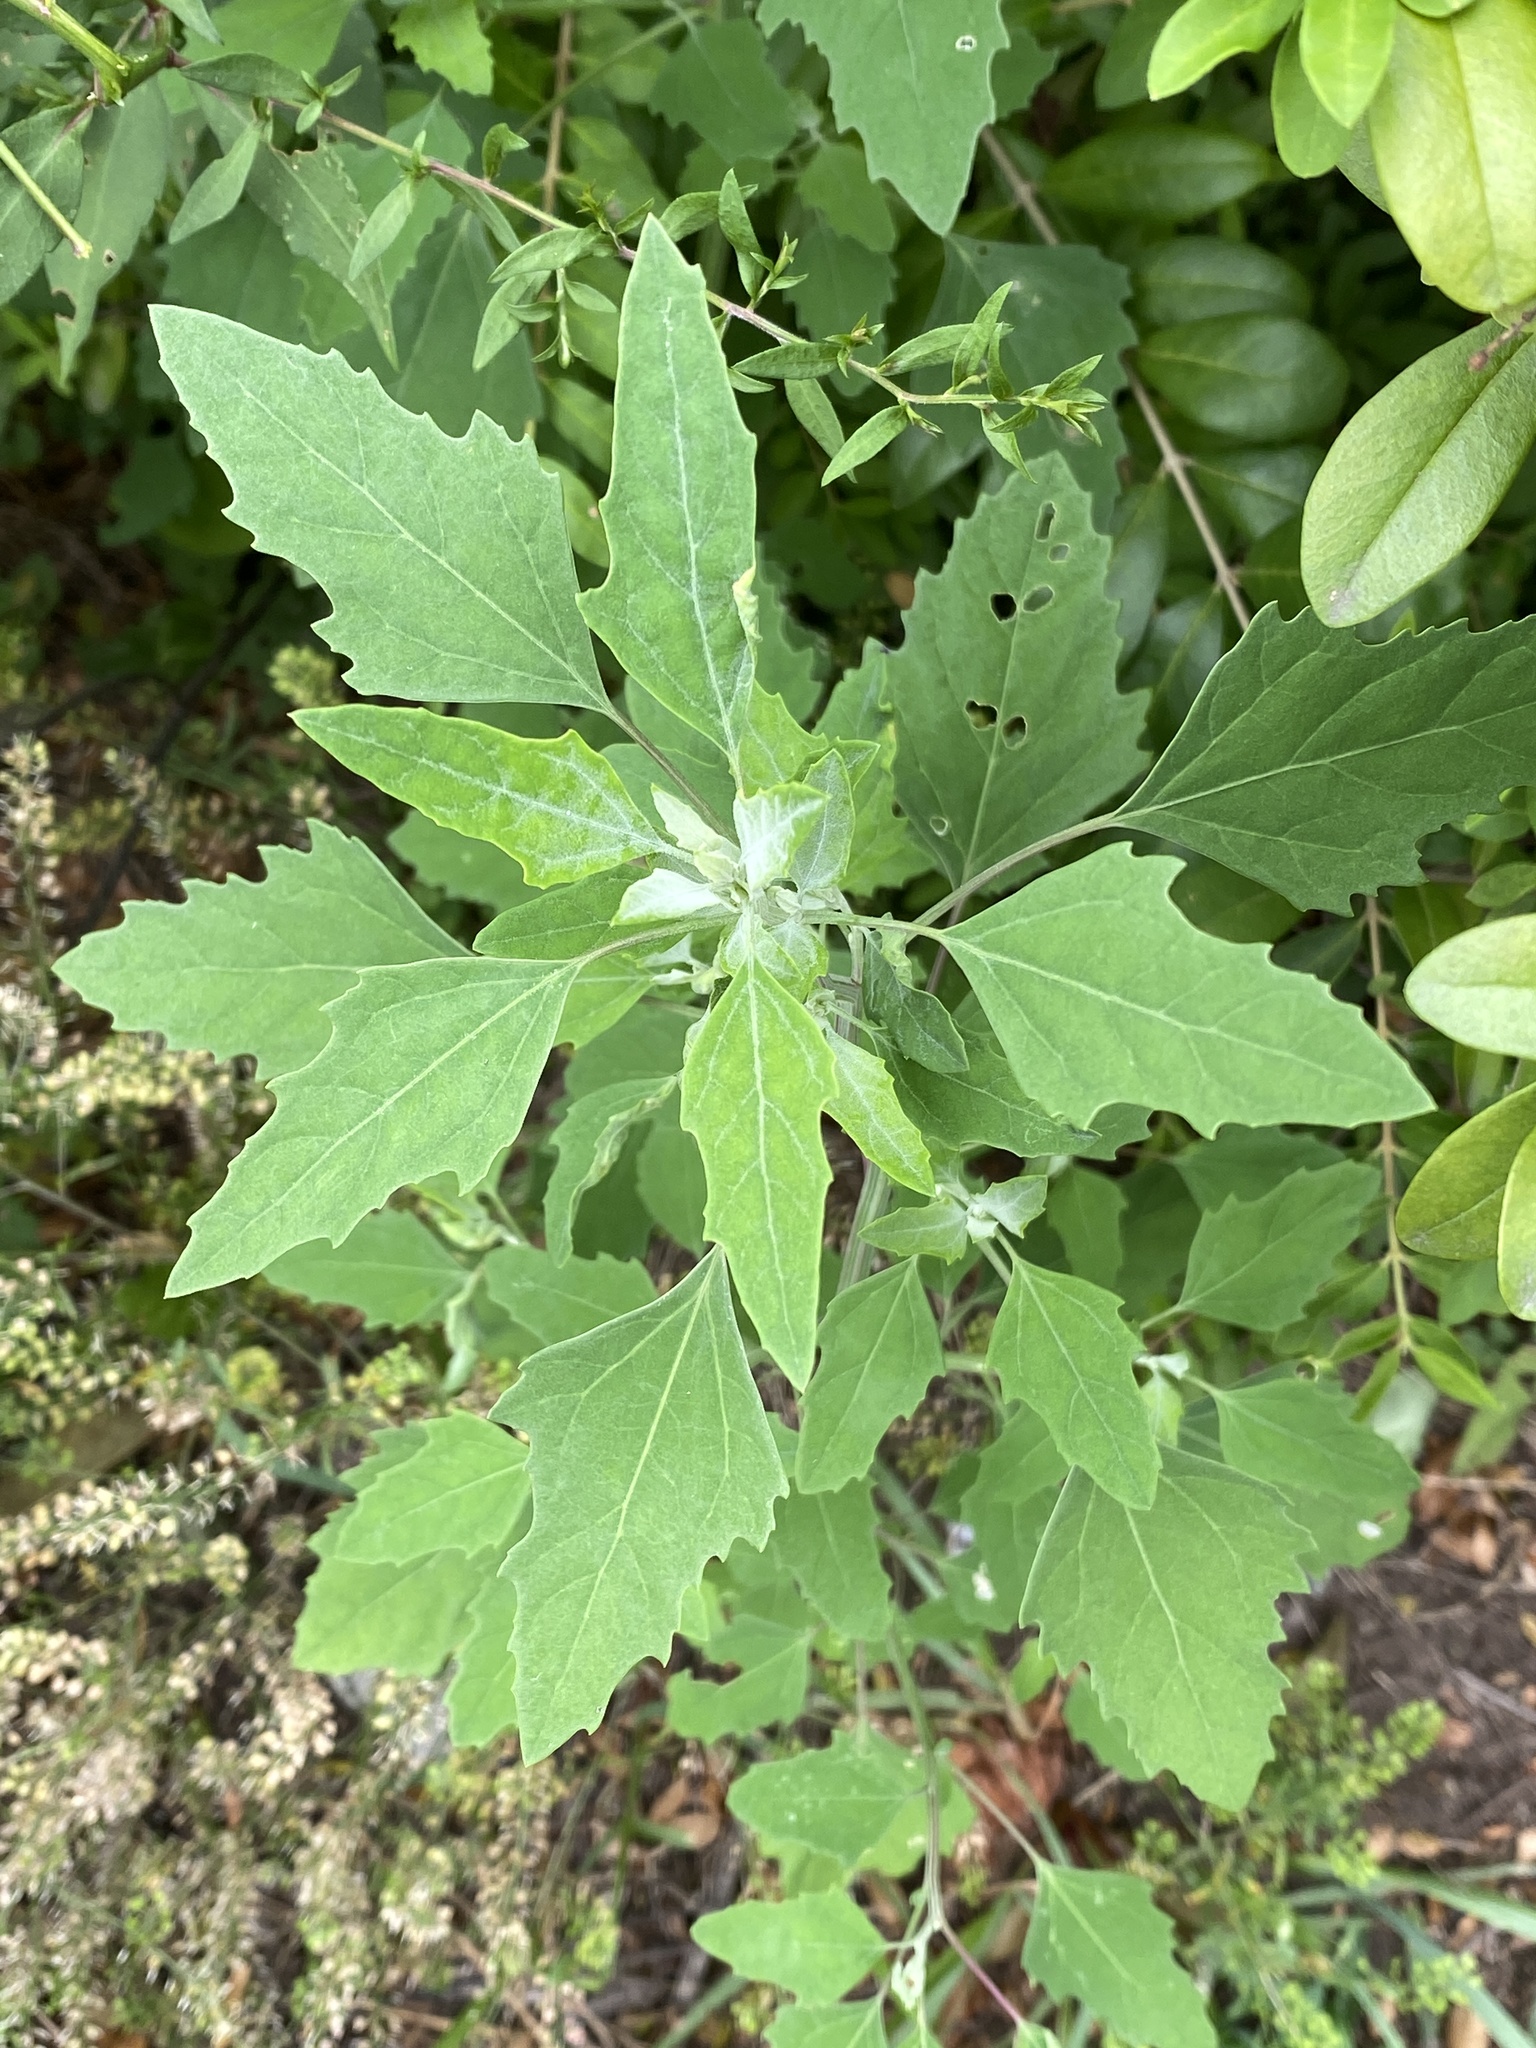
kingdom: Plantae
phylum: Tracheophyta
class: Magnoliopsida
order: Caryophyllales
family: Amaranthaceae
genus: Chenopodium
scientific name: Chenopodium album
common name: Fat-hen
